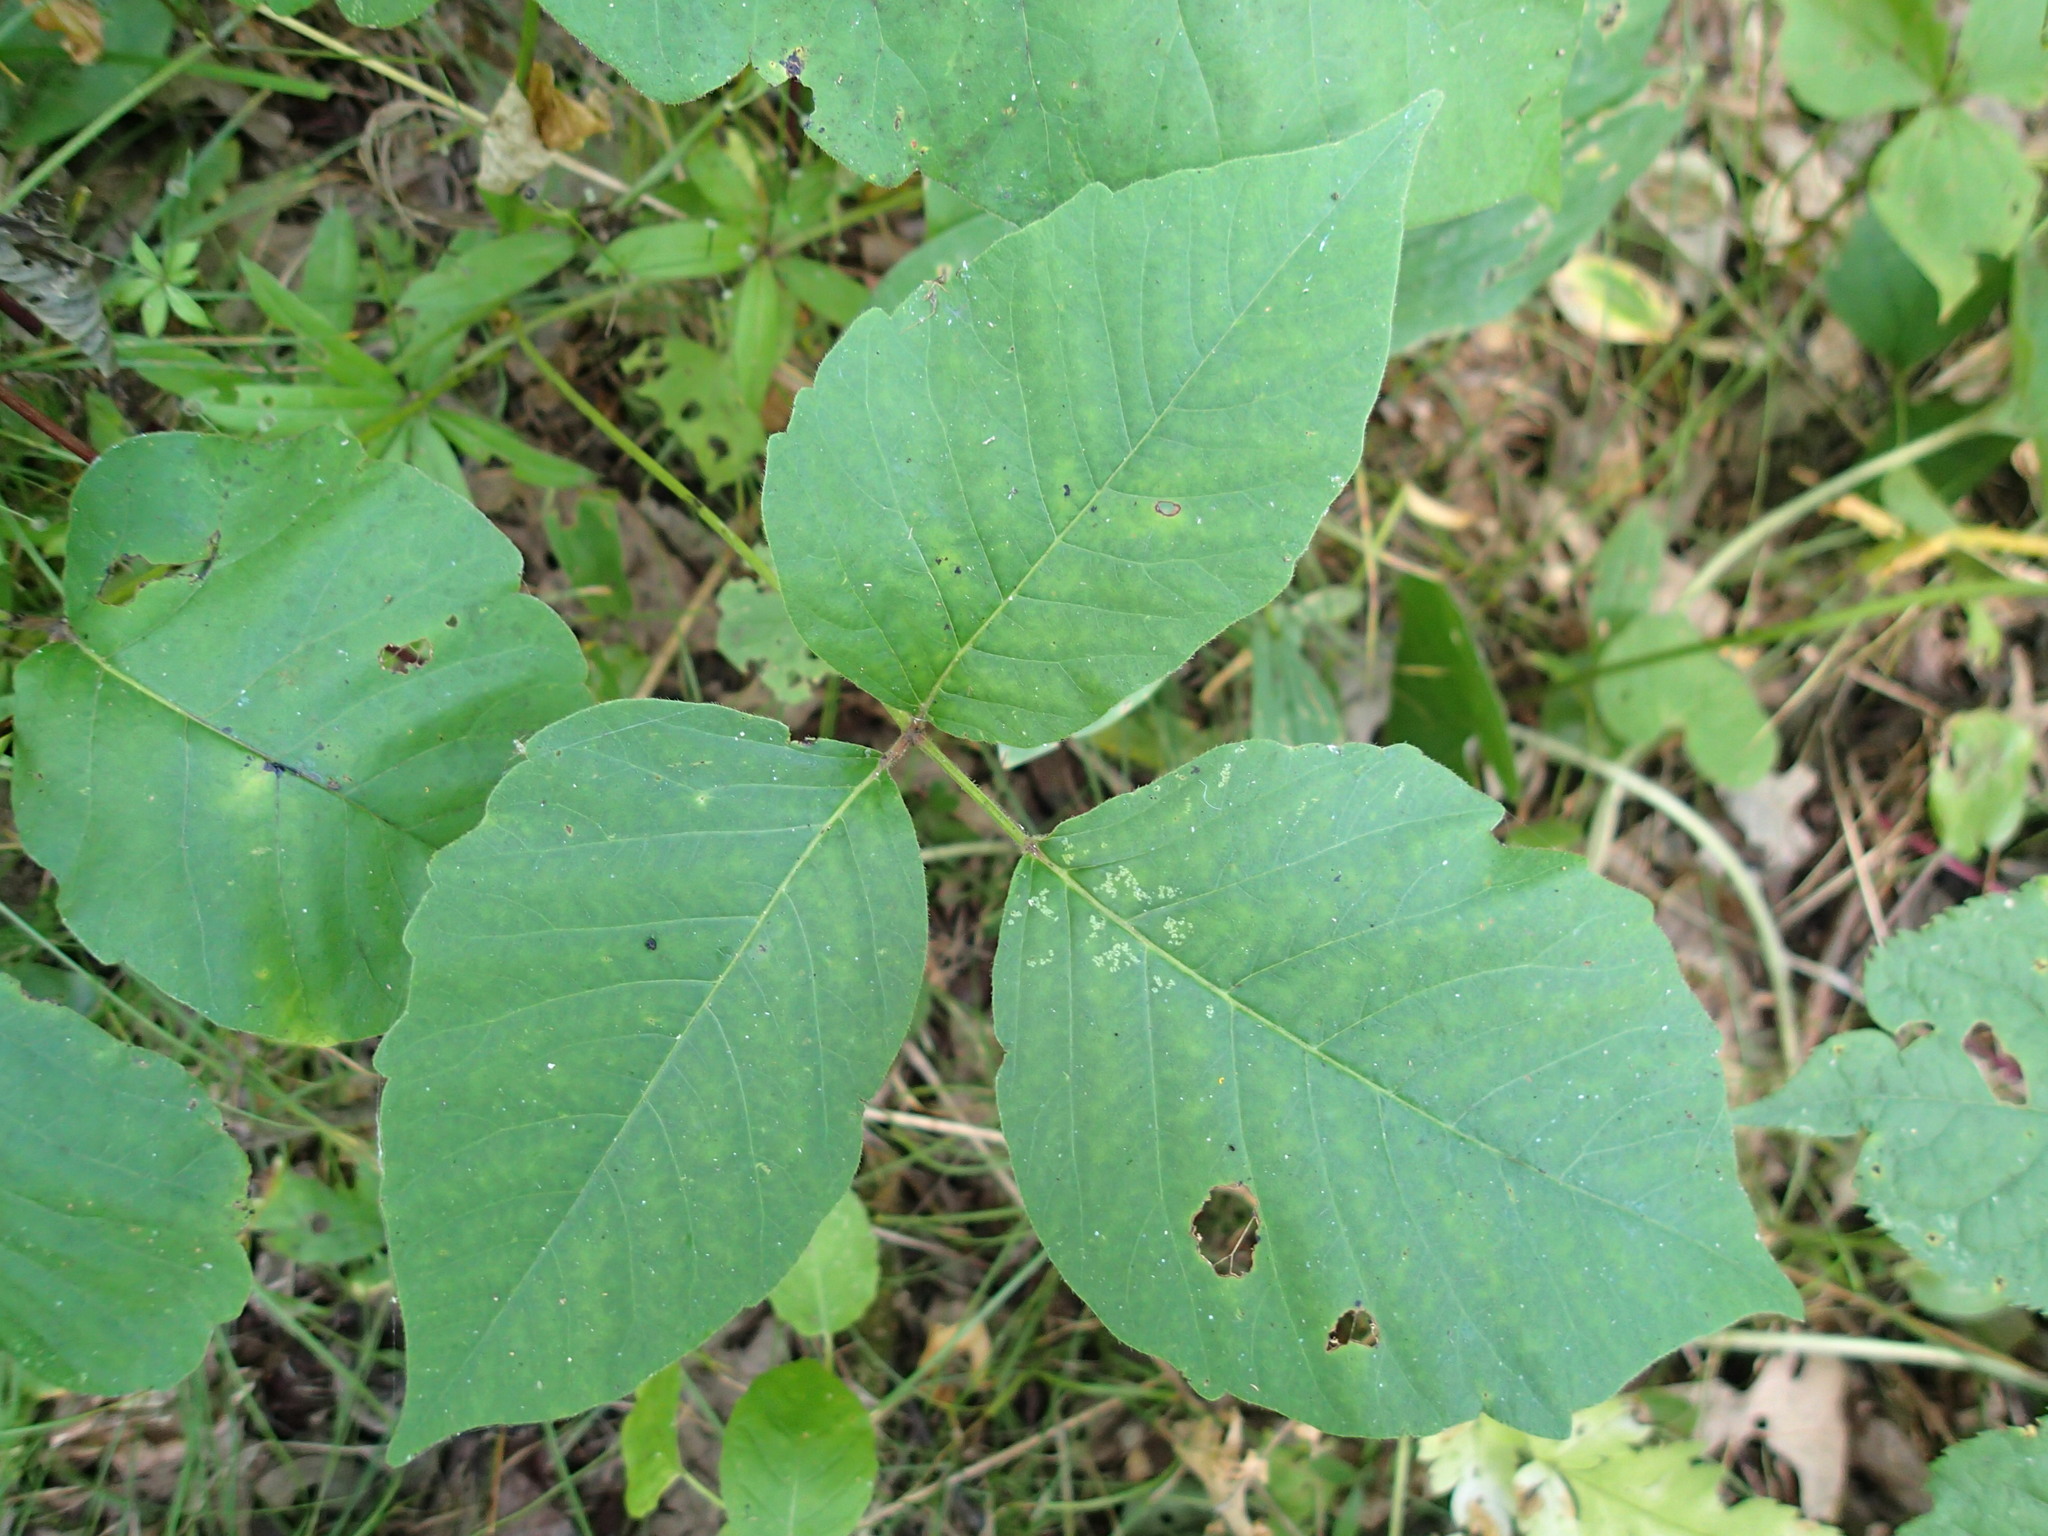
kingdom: Plantae
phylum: Tracheophyta
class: Magnoliopsida
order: Sapindales
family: Anacardiaceae
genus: Toxicodendron
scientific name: Toxicodendron rydbergii
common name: Rydberg's poison-ivy
